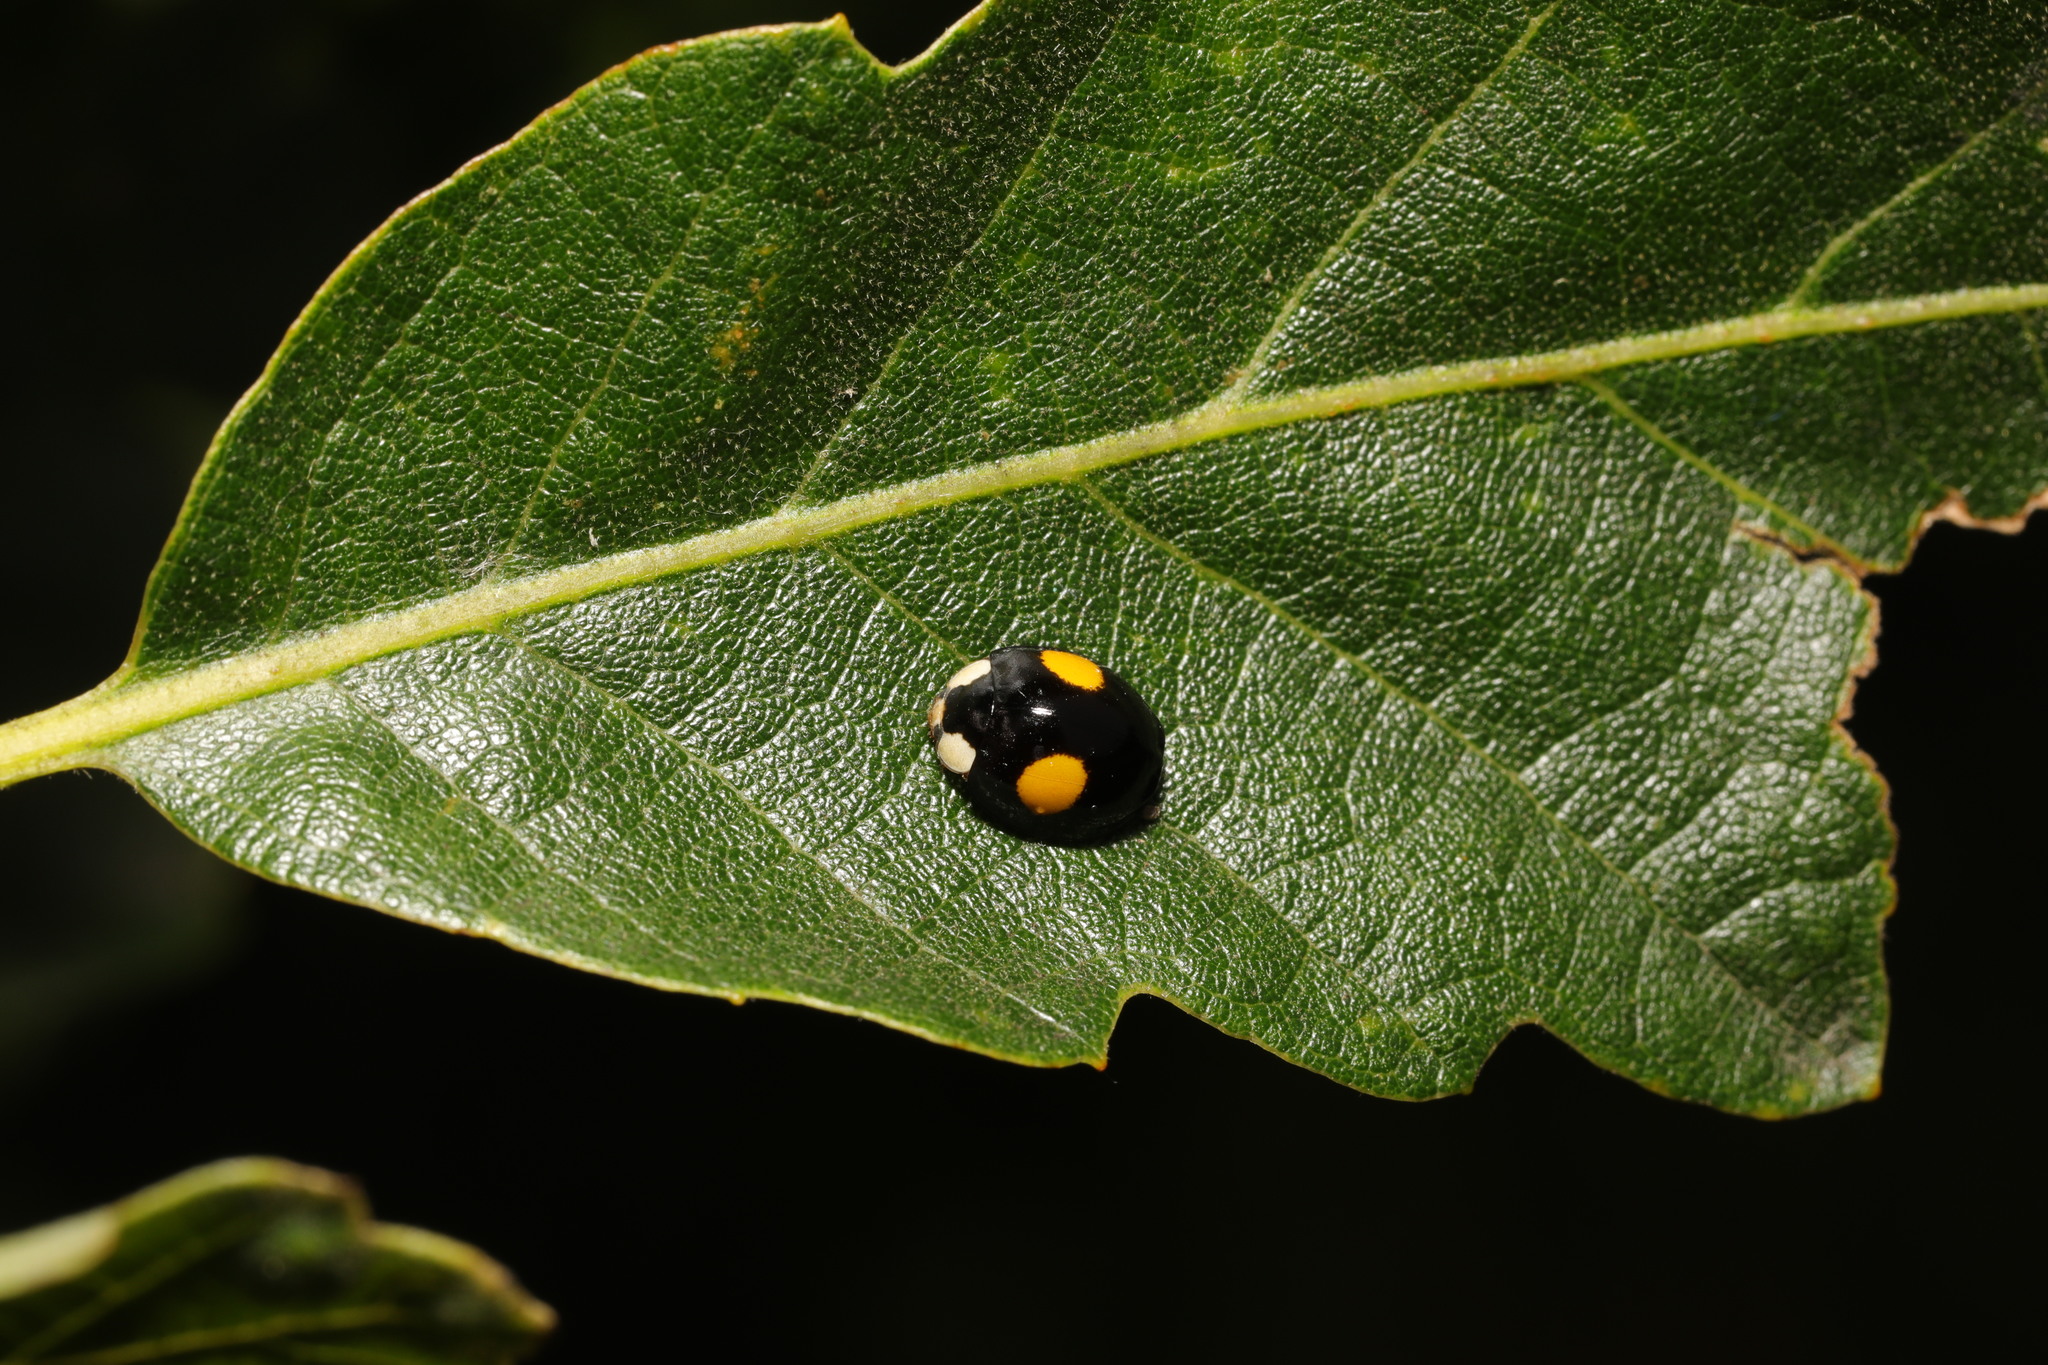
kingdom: Animalia
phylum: Arthropoda
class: Insecta
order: Coleoptera
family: Coccinellidae
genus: Harmonia
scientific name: Harmonia axyridis
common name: Harlequin ladybird
